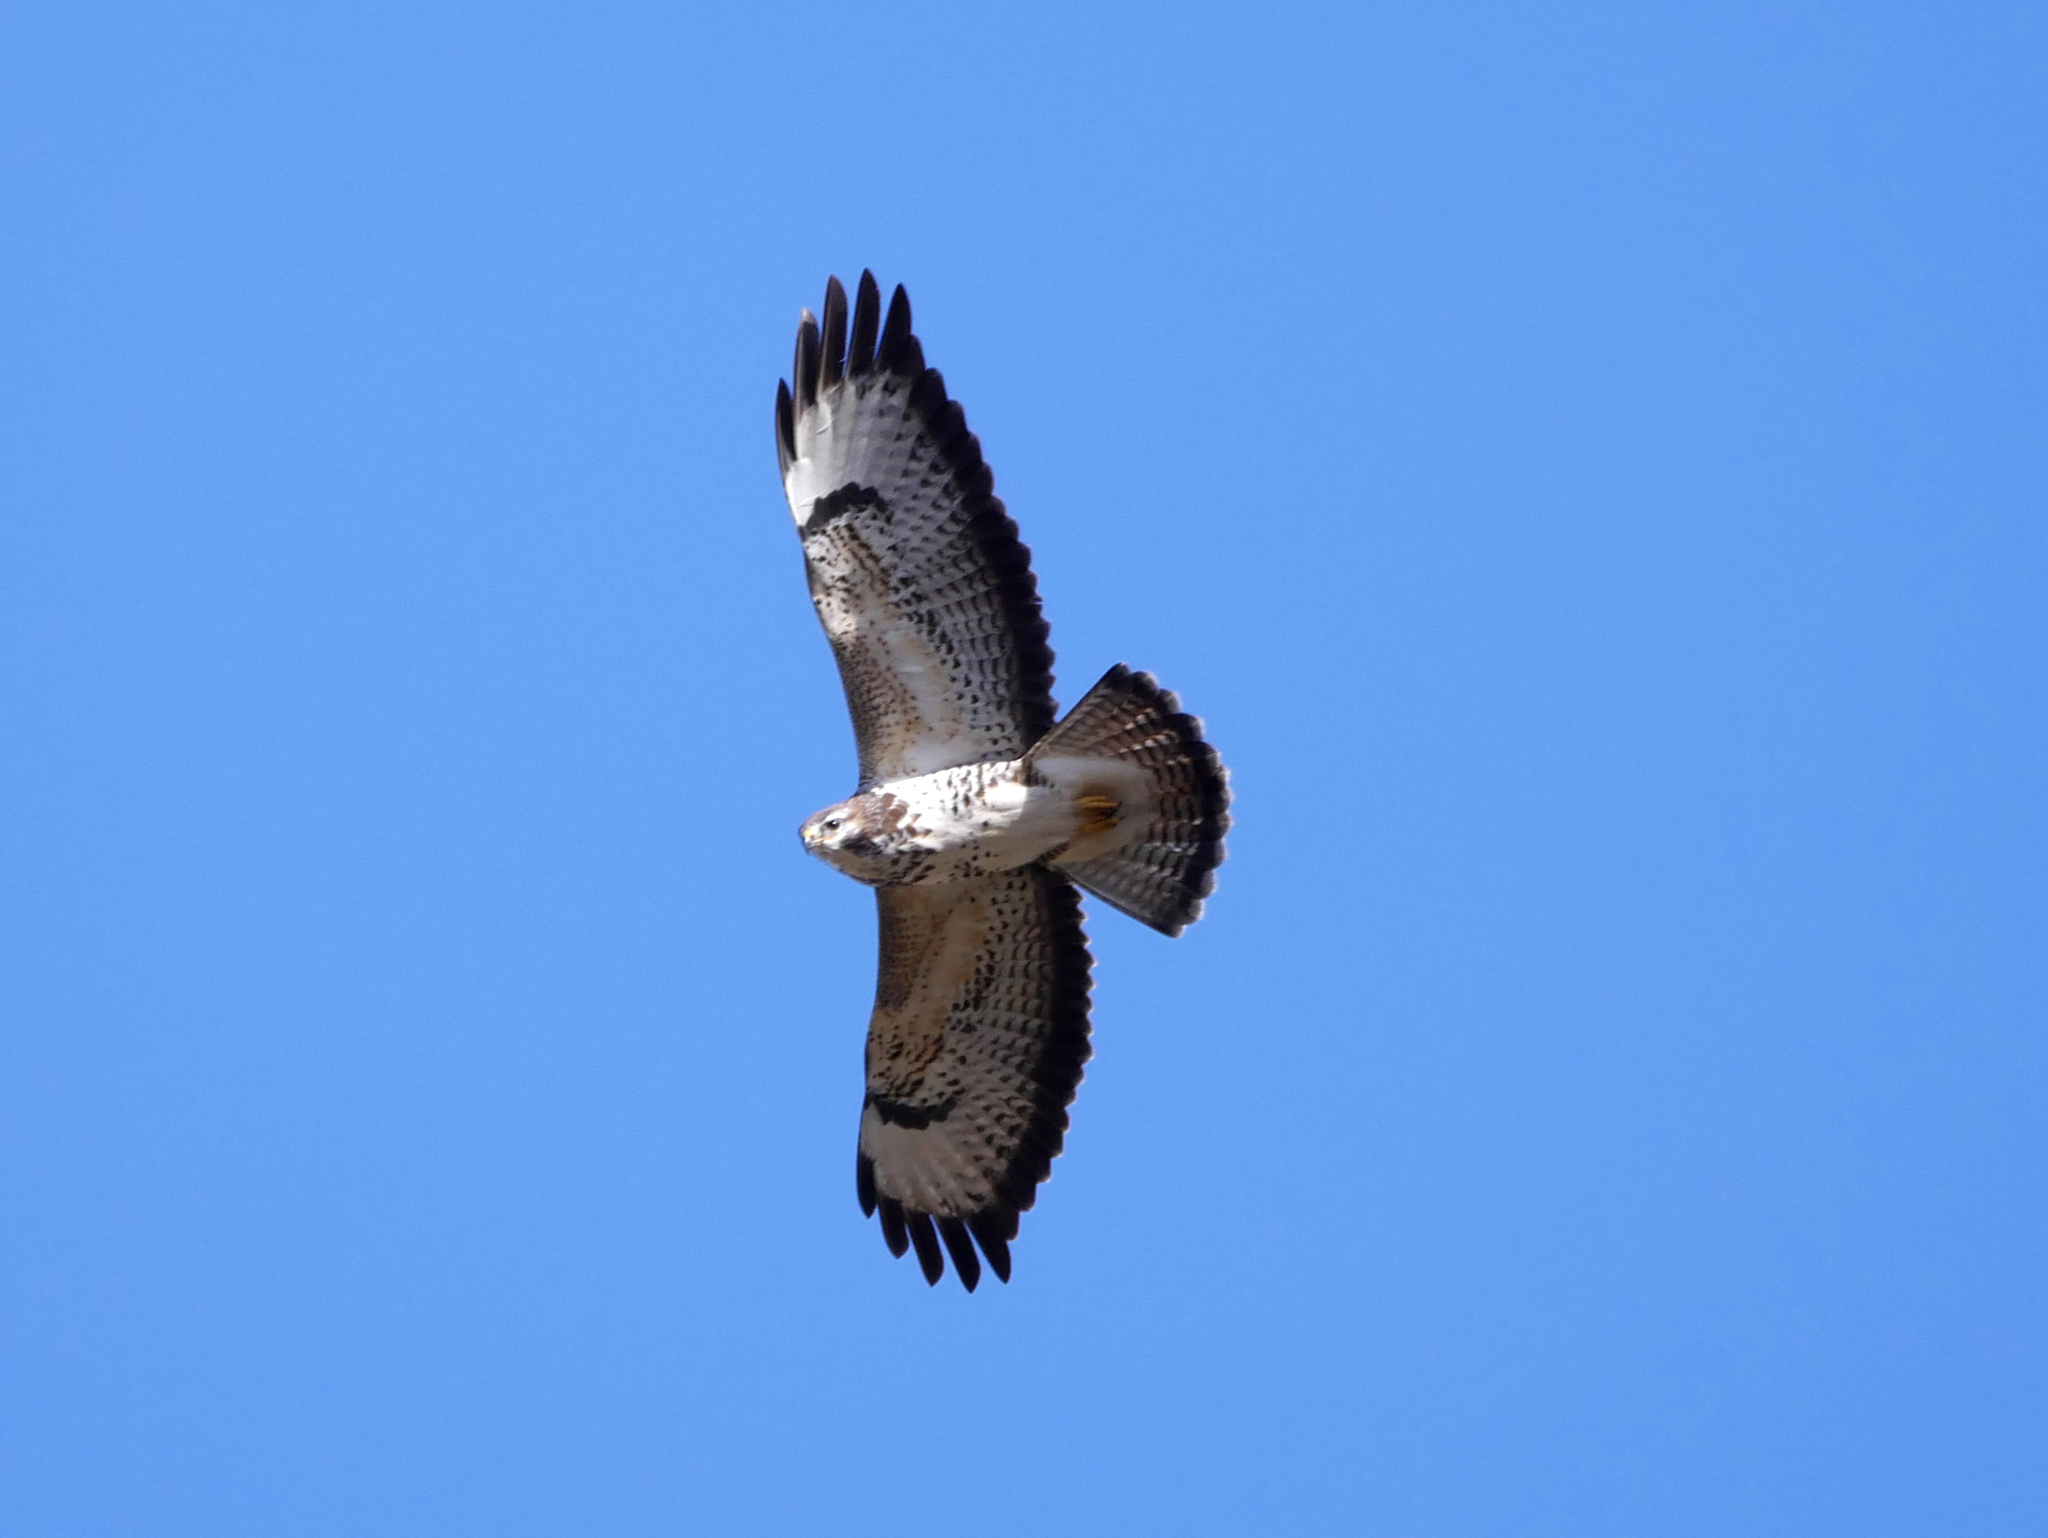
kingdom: Animalia
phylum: Chordata
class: Aves
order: Accipitriformes
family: Accipitridae
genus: Buteo
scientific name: Buteo buteo
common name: Common buzzard
